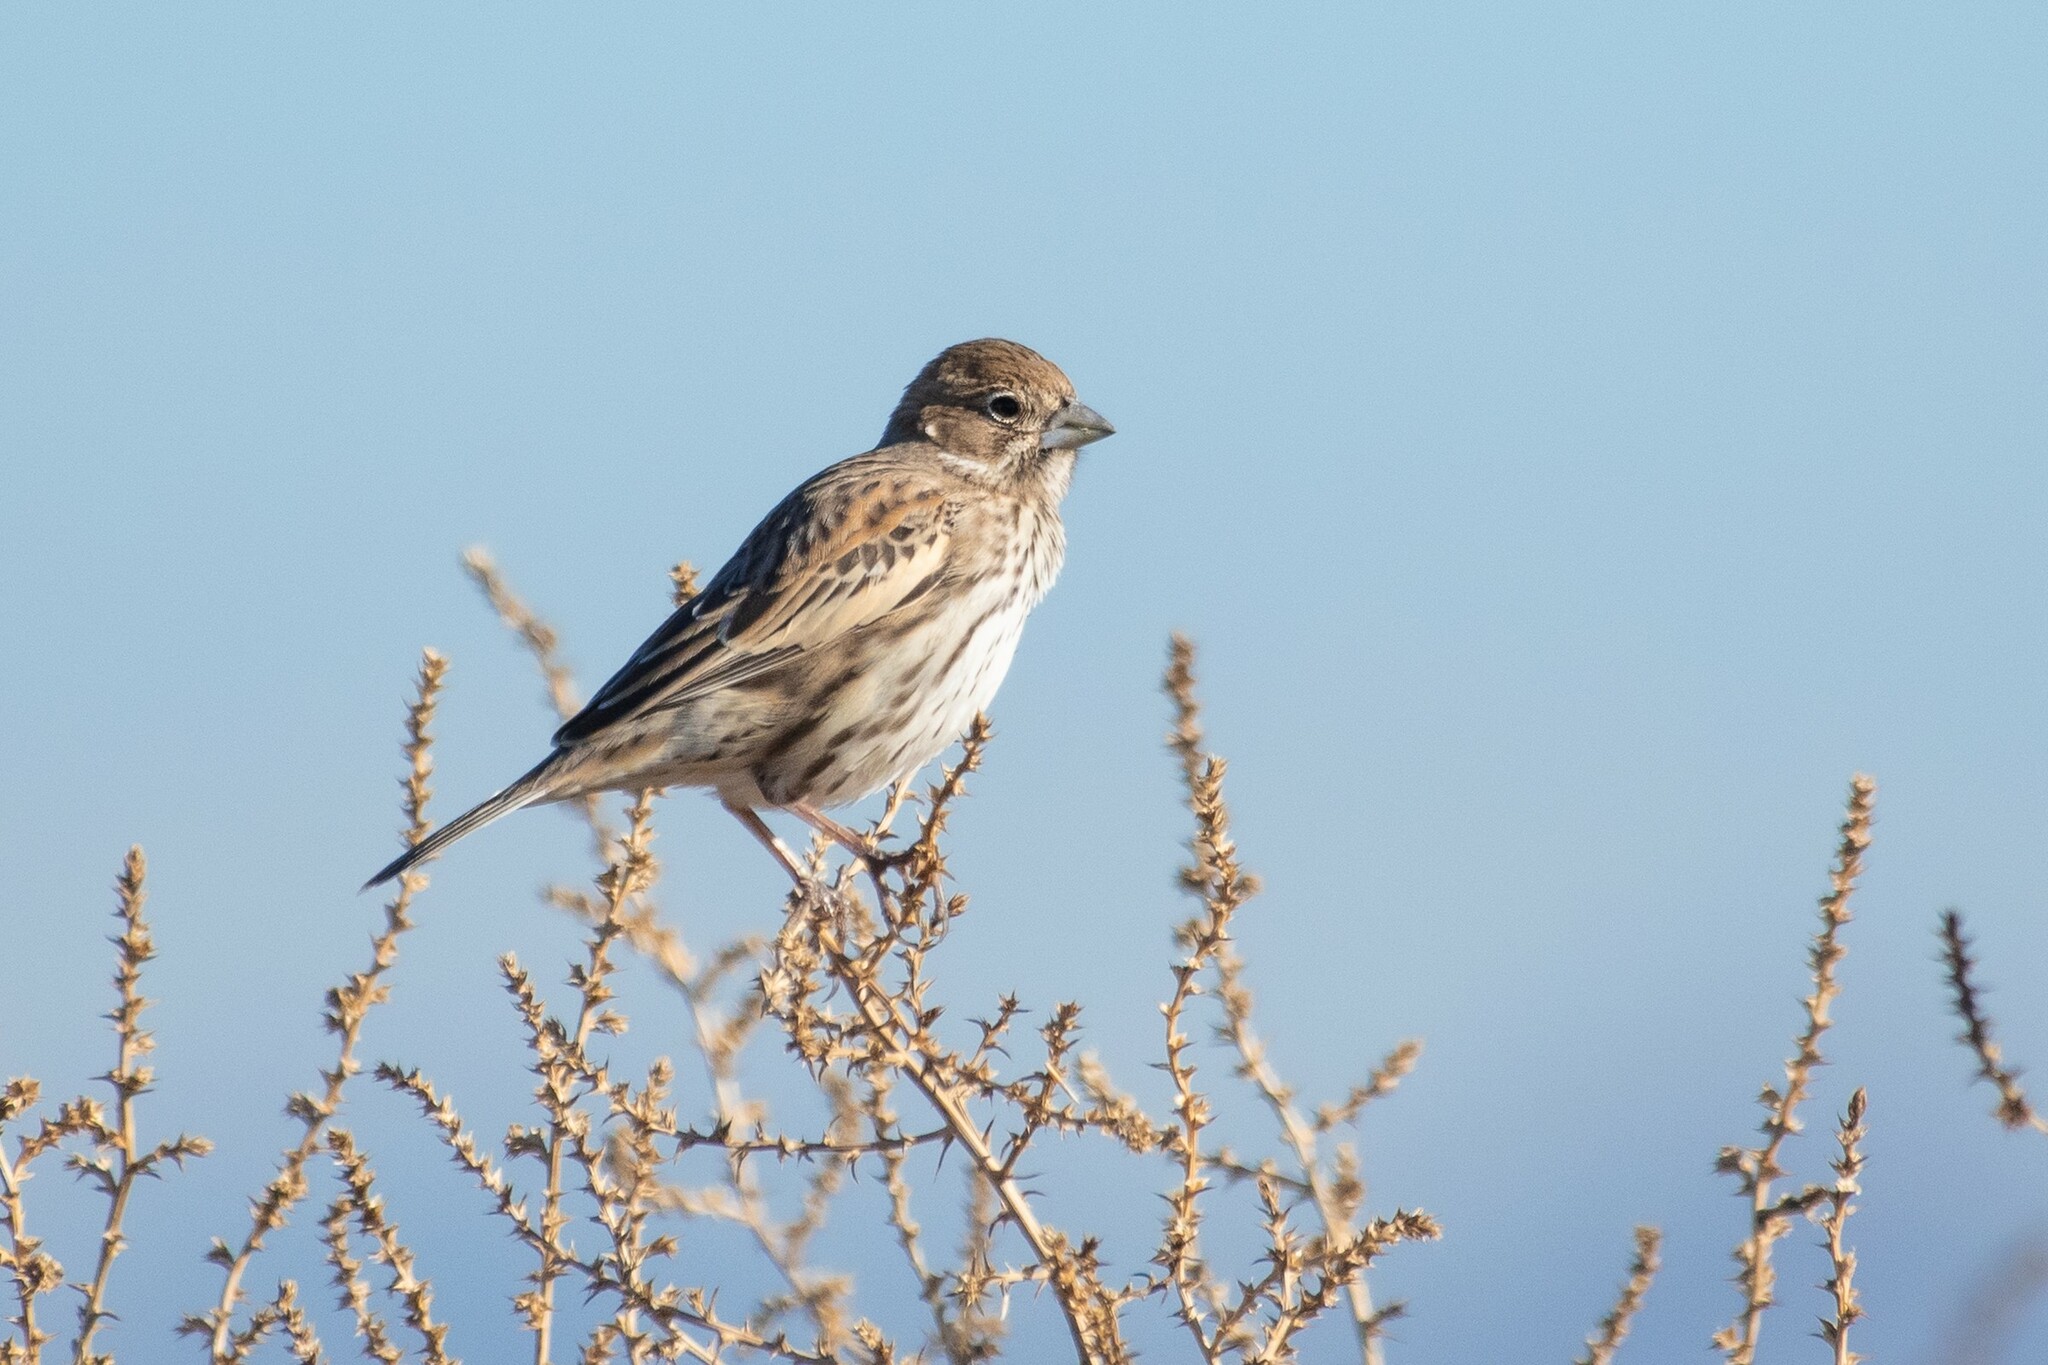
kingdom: Animalia
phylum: Chordata
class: Aves
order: Passeriformes
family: Passerellidae
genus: Calamospiza
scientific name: Calamospiza melanocorys
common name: Lark bunting
